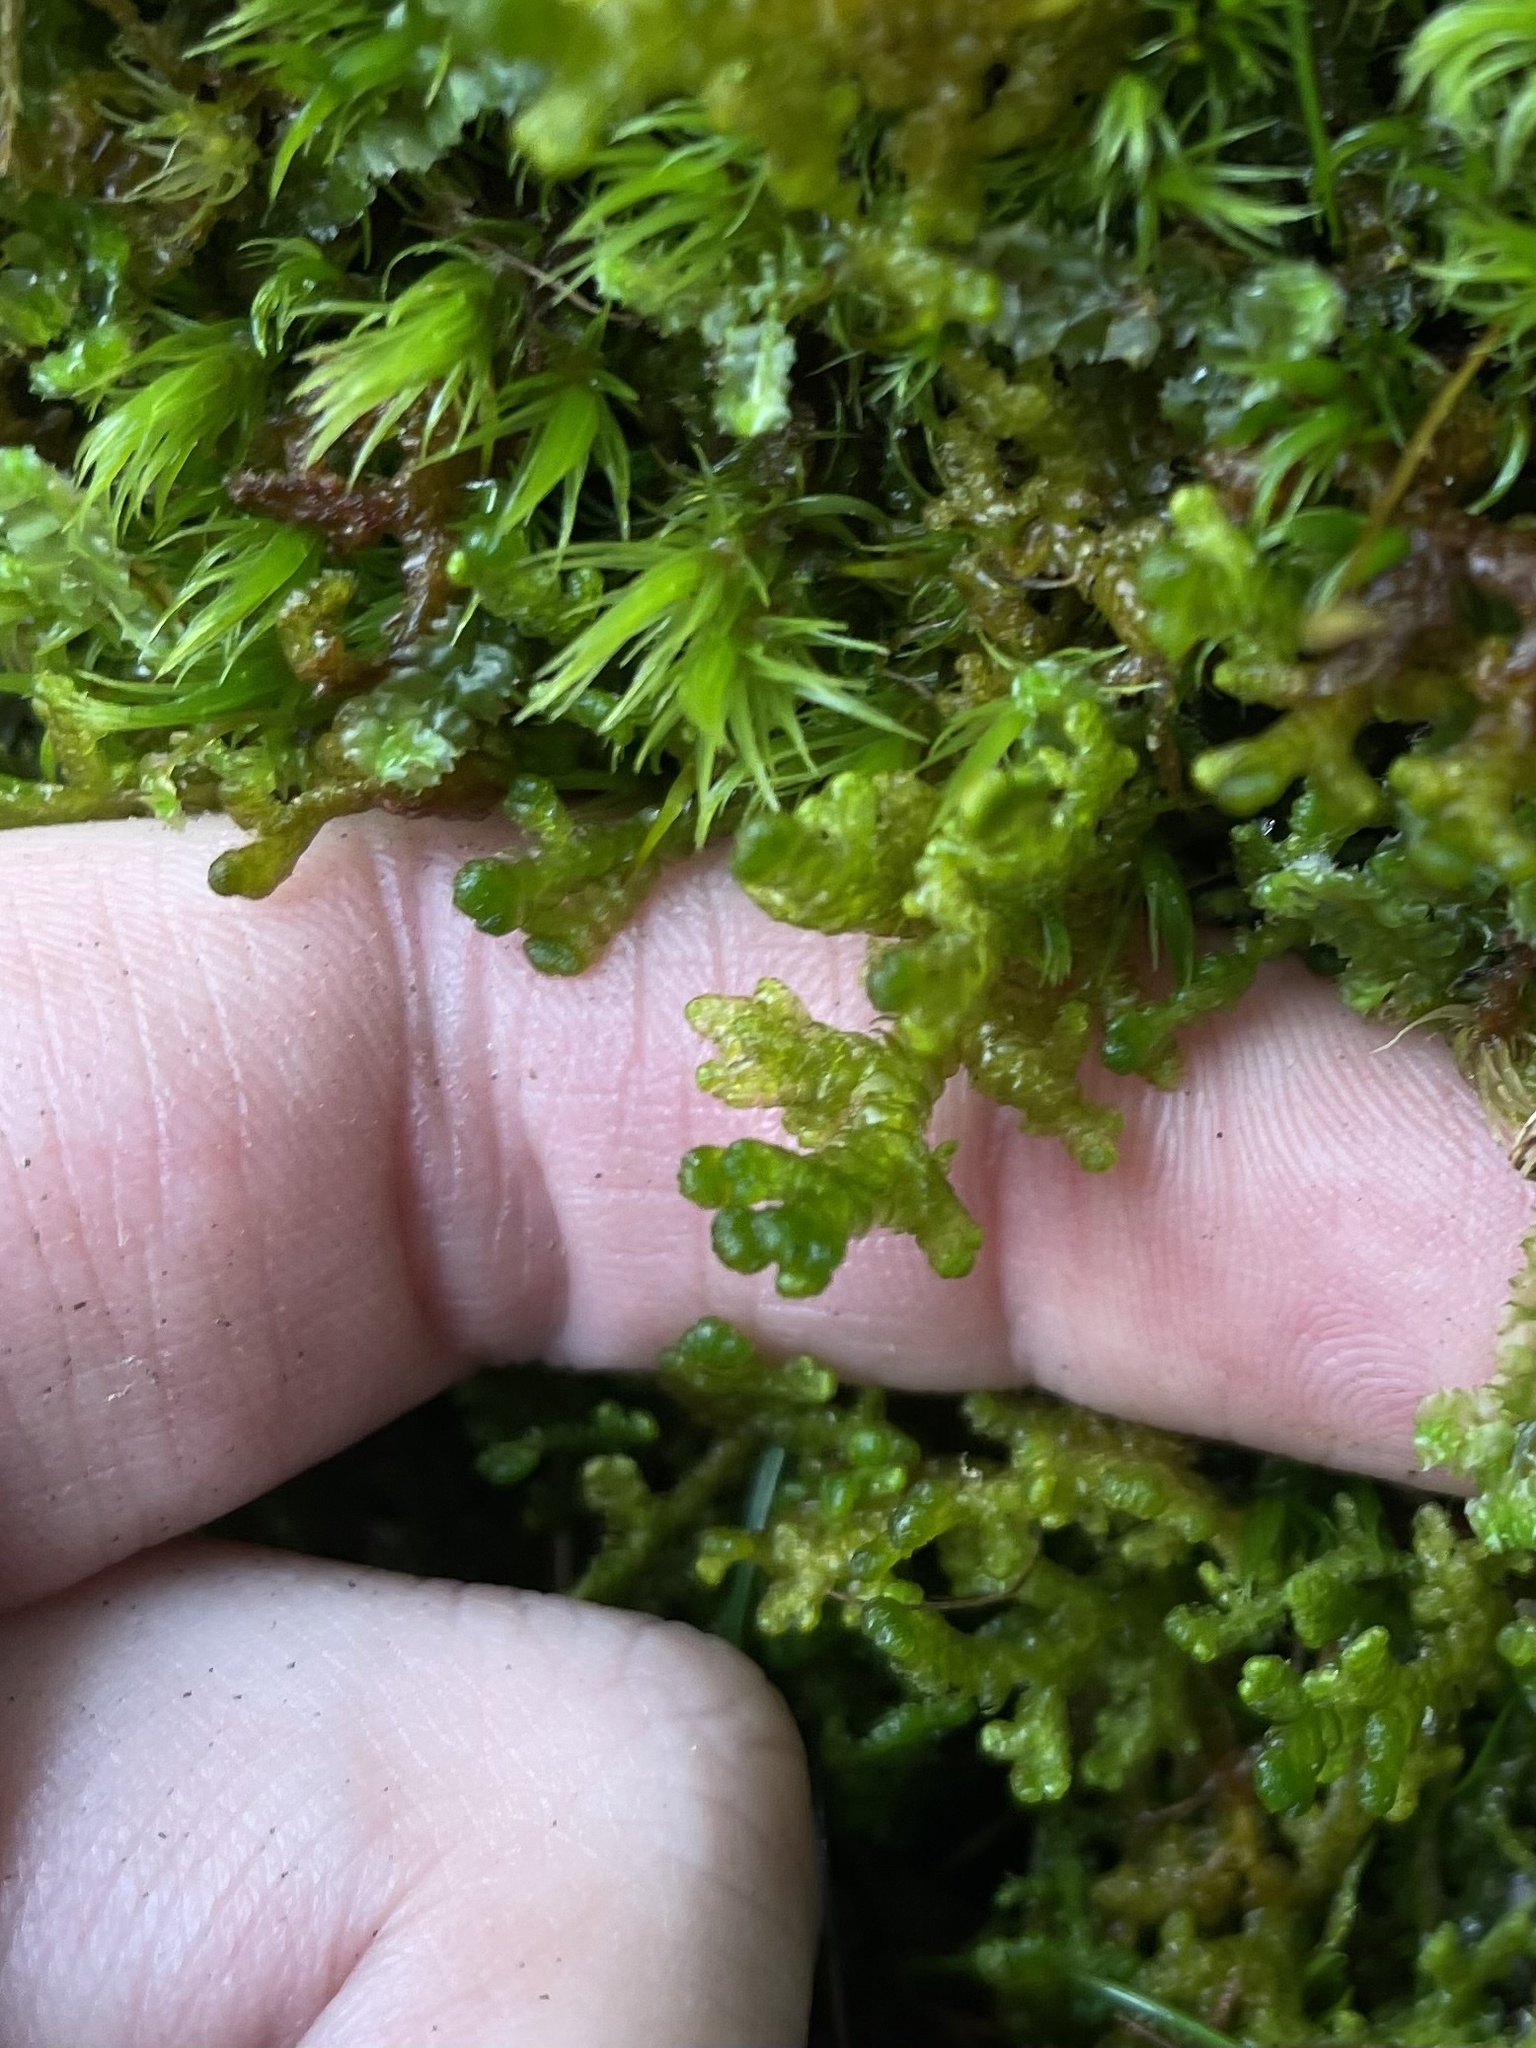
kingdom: Plantae
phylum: Marchantiophyta
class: Jungermanniopsida
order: Ptilidiales
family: Ptilidiaceae
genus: Ptilidium
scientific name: Ptilidium ciliare
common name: Ciliate fringewort
